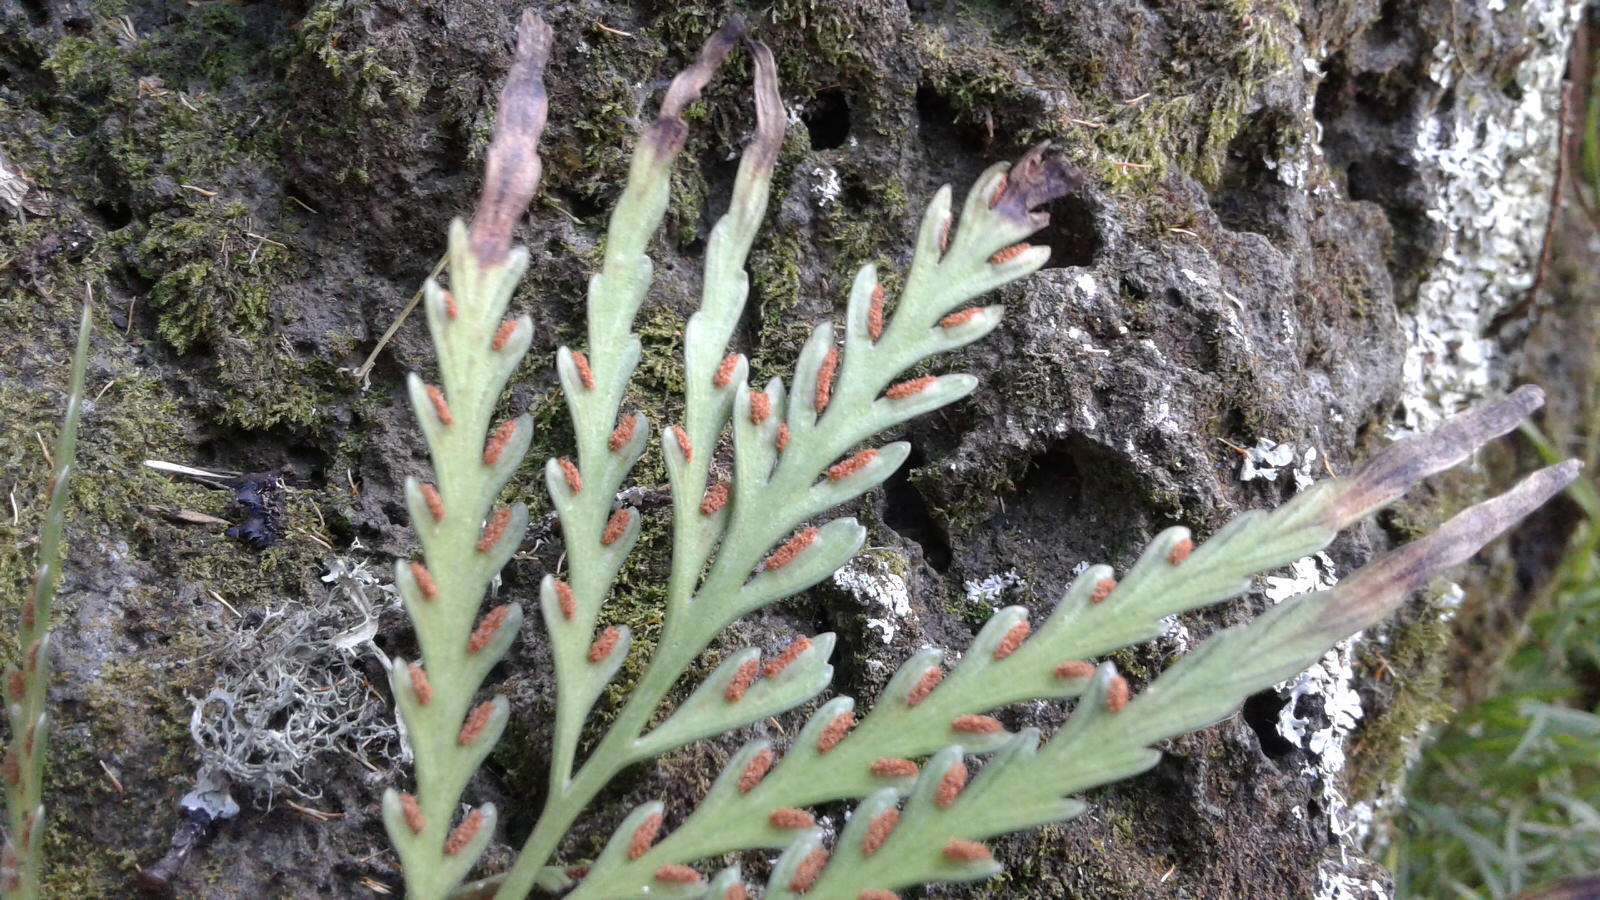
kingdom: Plantae
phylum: Tracheophyta
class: Polypodiopsida
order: Polypodiales
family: Aspleniaceae
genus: Asplenium
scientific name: Asplenium flaccidum
